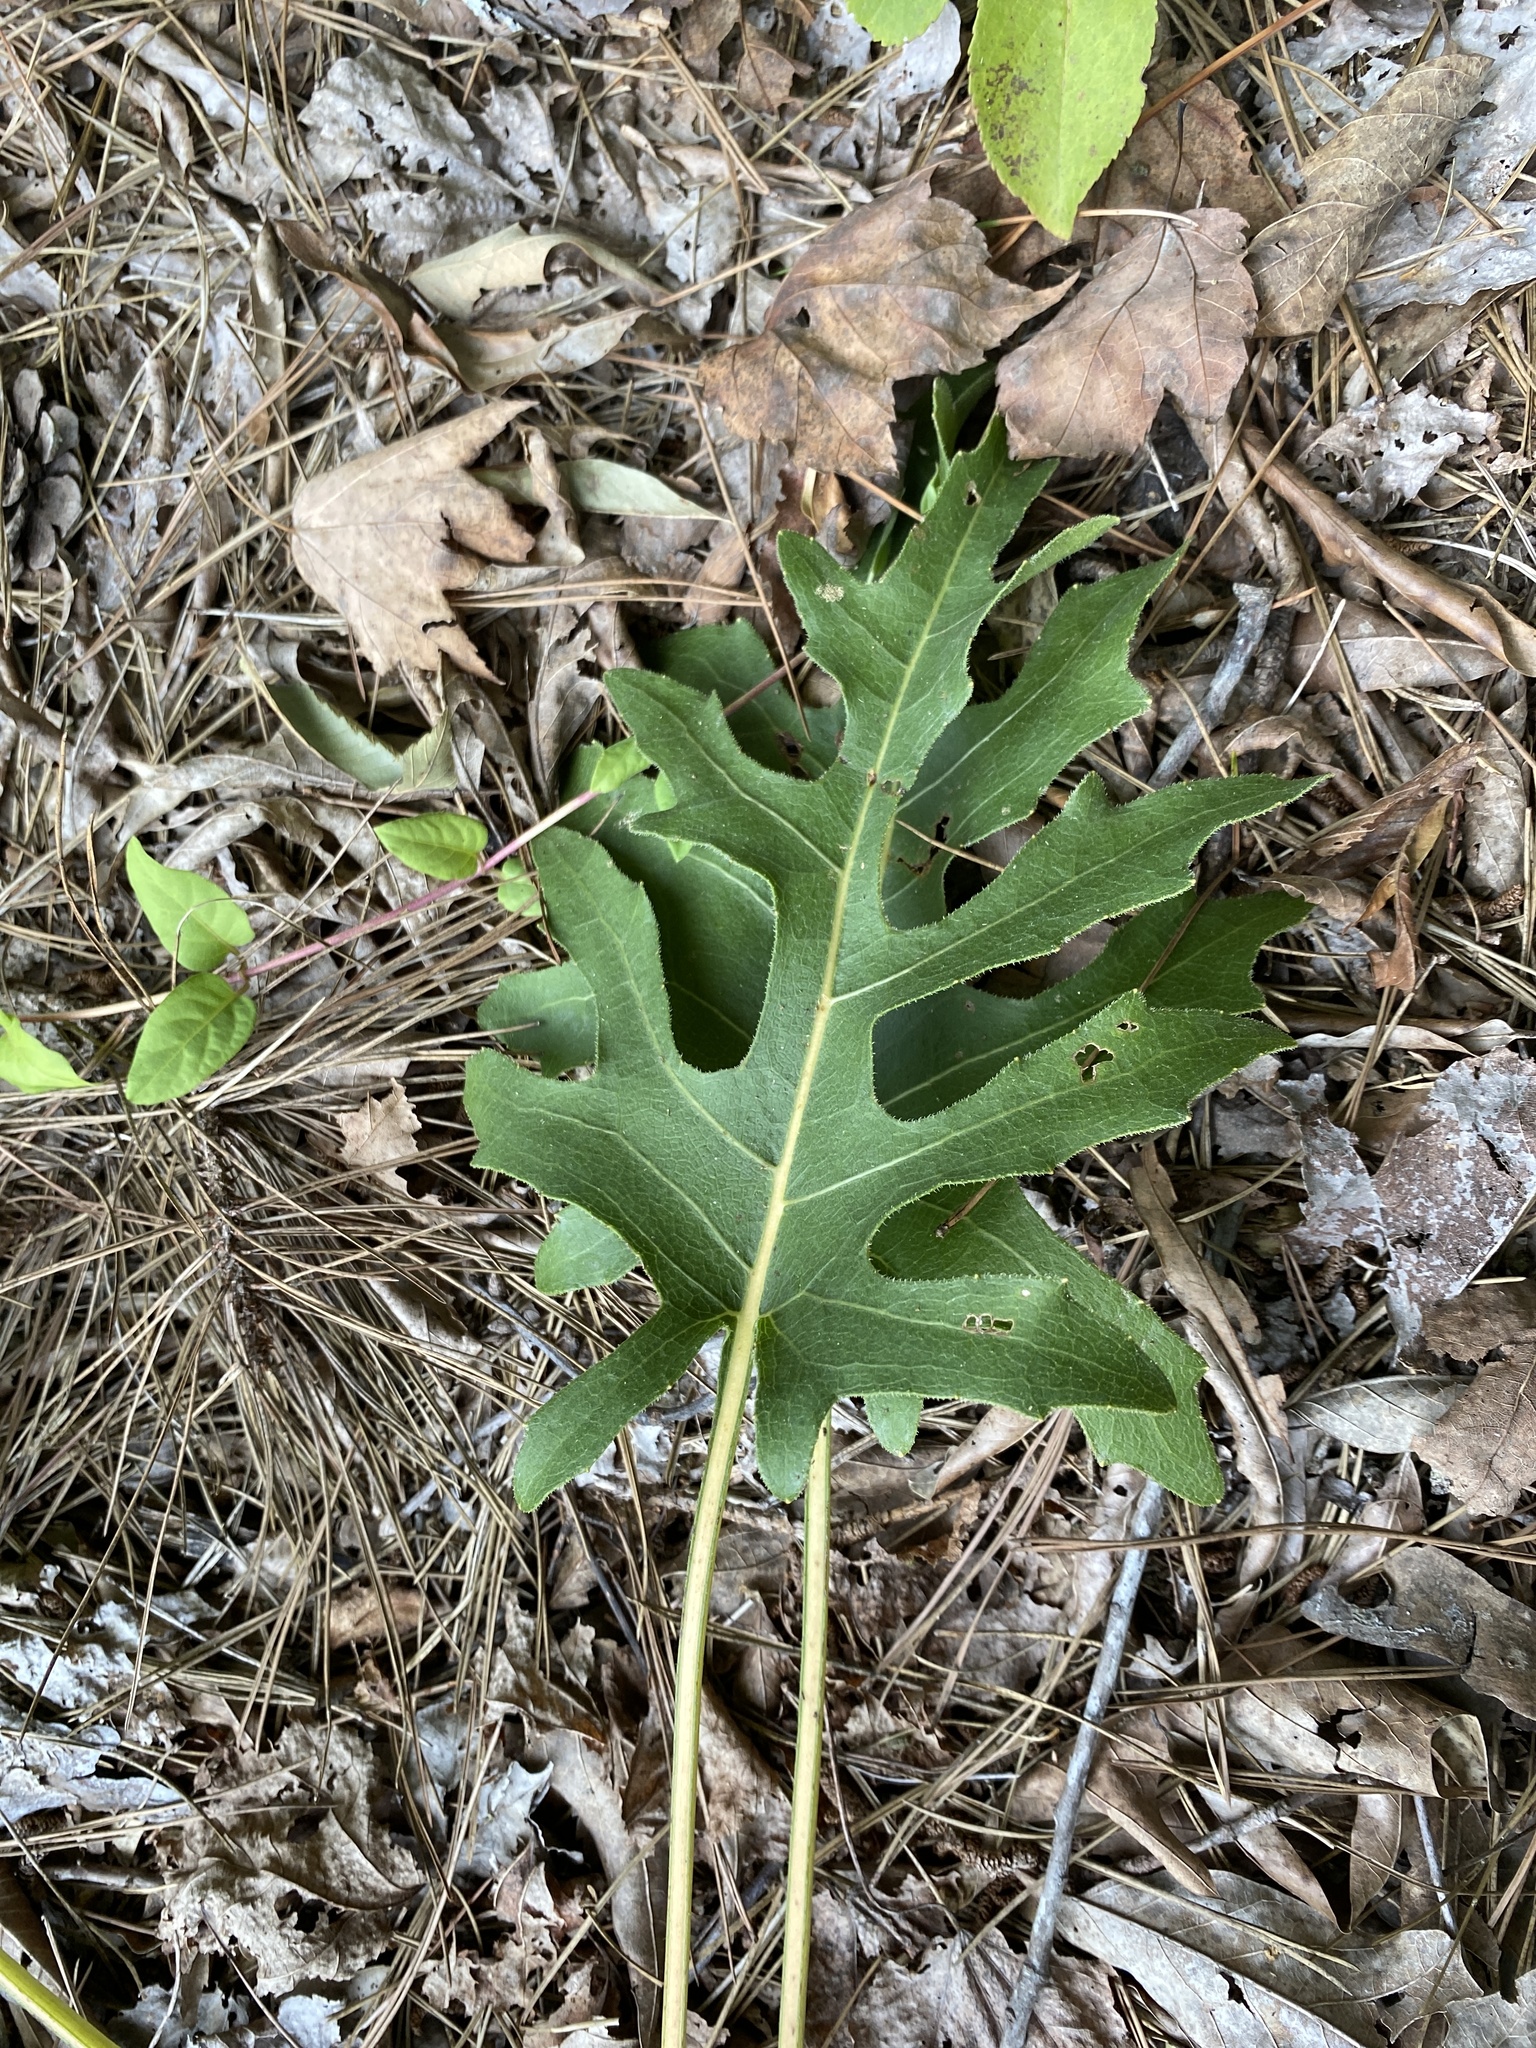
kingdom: Plantae
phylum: Tracheophyta
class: Magnoliopsida
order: Asterales
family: Asteraceae
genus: Silphium
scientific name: Silphium compositum
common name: Lesser basal-leaf rosinweed
